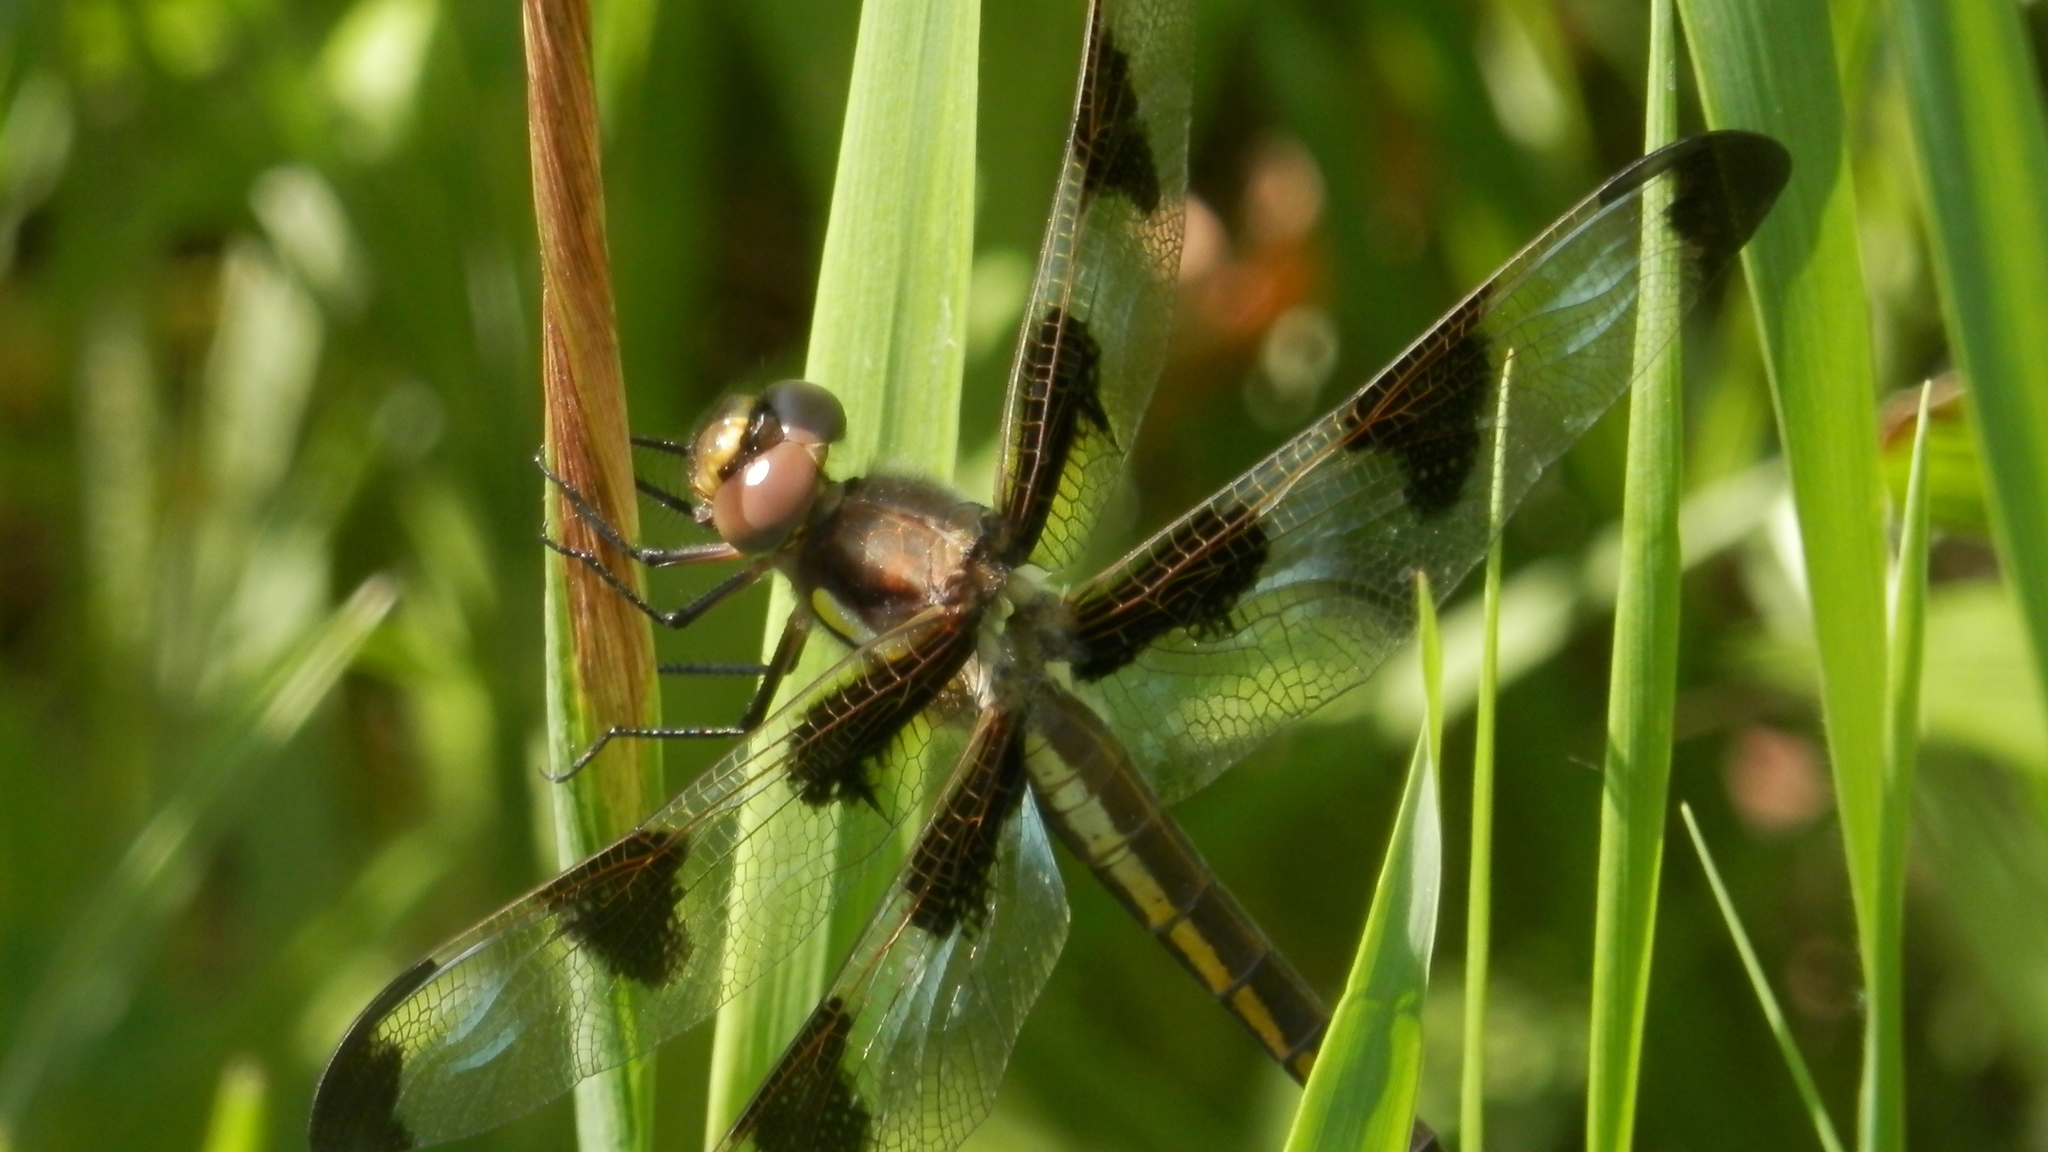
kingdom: Animalia
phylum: Arthropoda
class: Insecta
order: Odonata
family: Libellulidae
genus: Libellula
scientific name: Libellula pulchella
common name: Twelve-spotted skimmer
